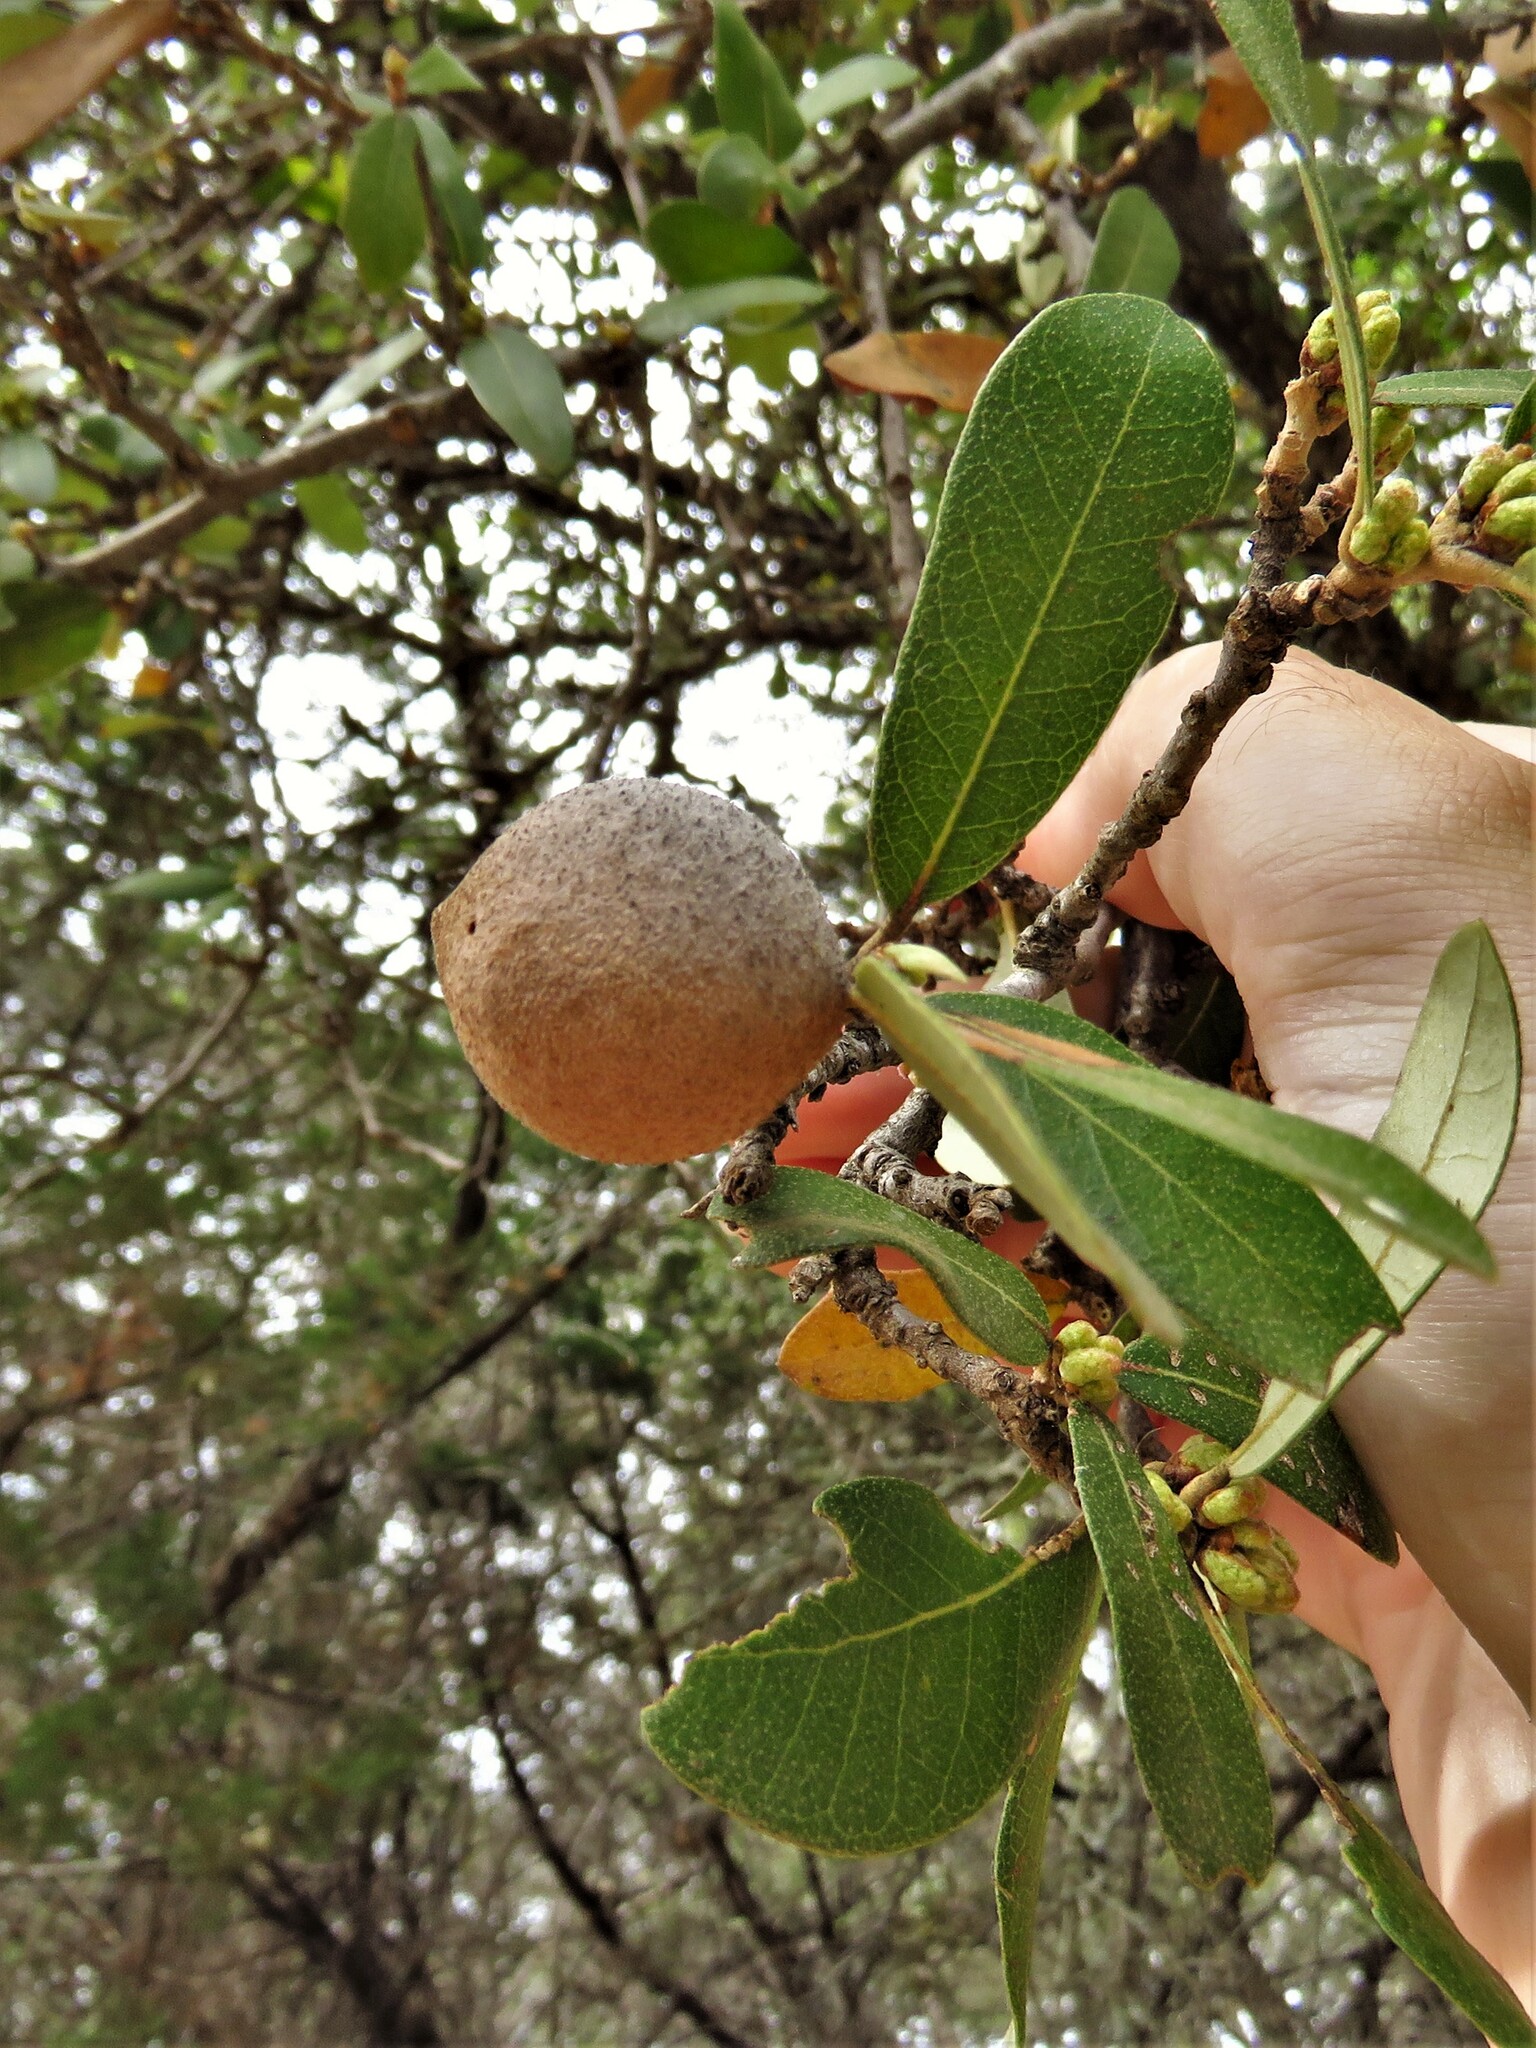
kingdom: Animalia
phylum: Arthropoda
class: Insecta
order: Hymenoptera
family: Cynipidae
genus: Disholcaspis
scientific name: Disholcaspis
